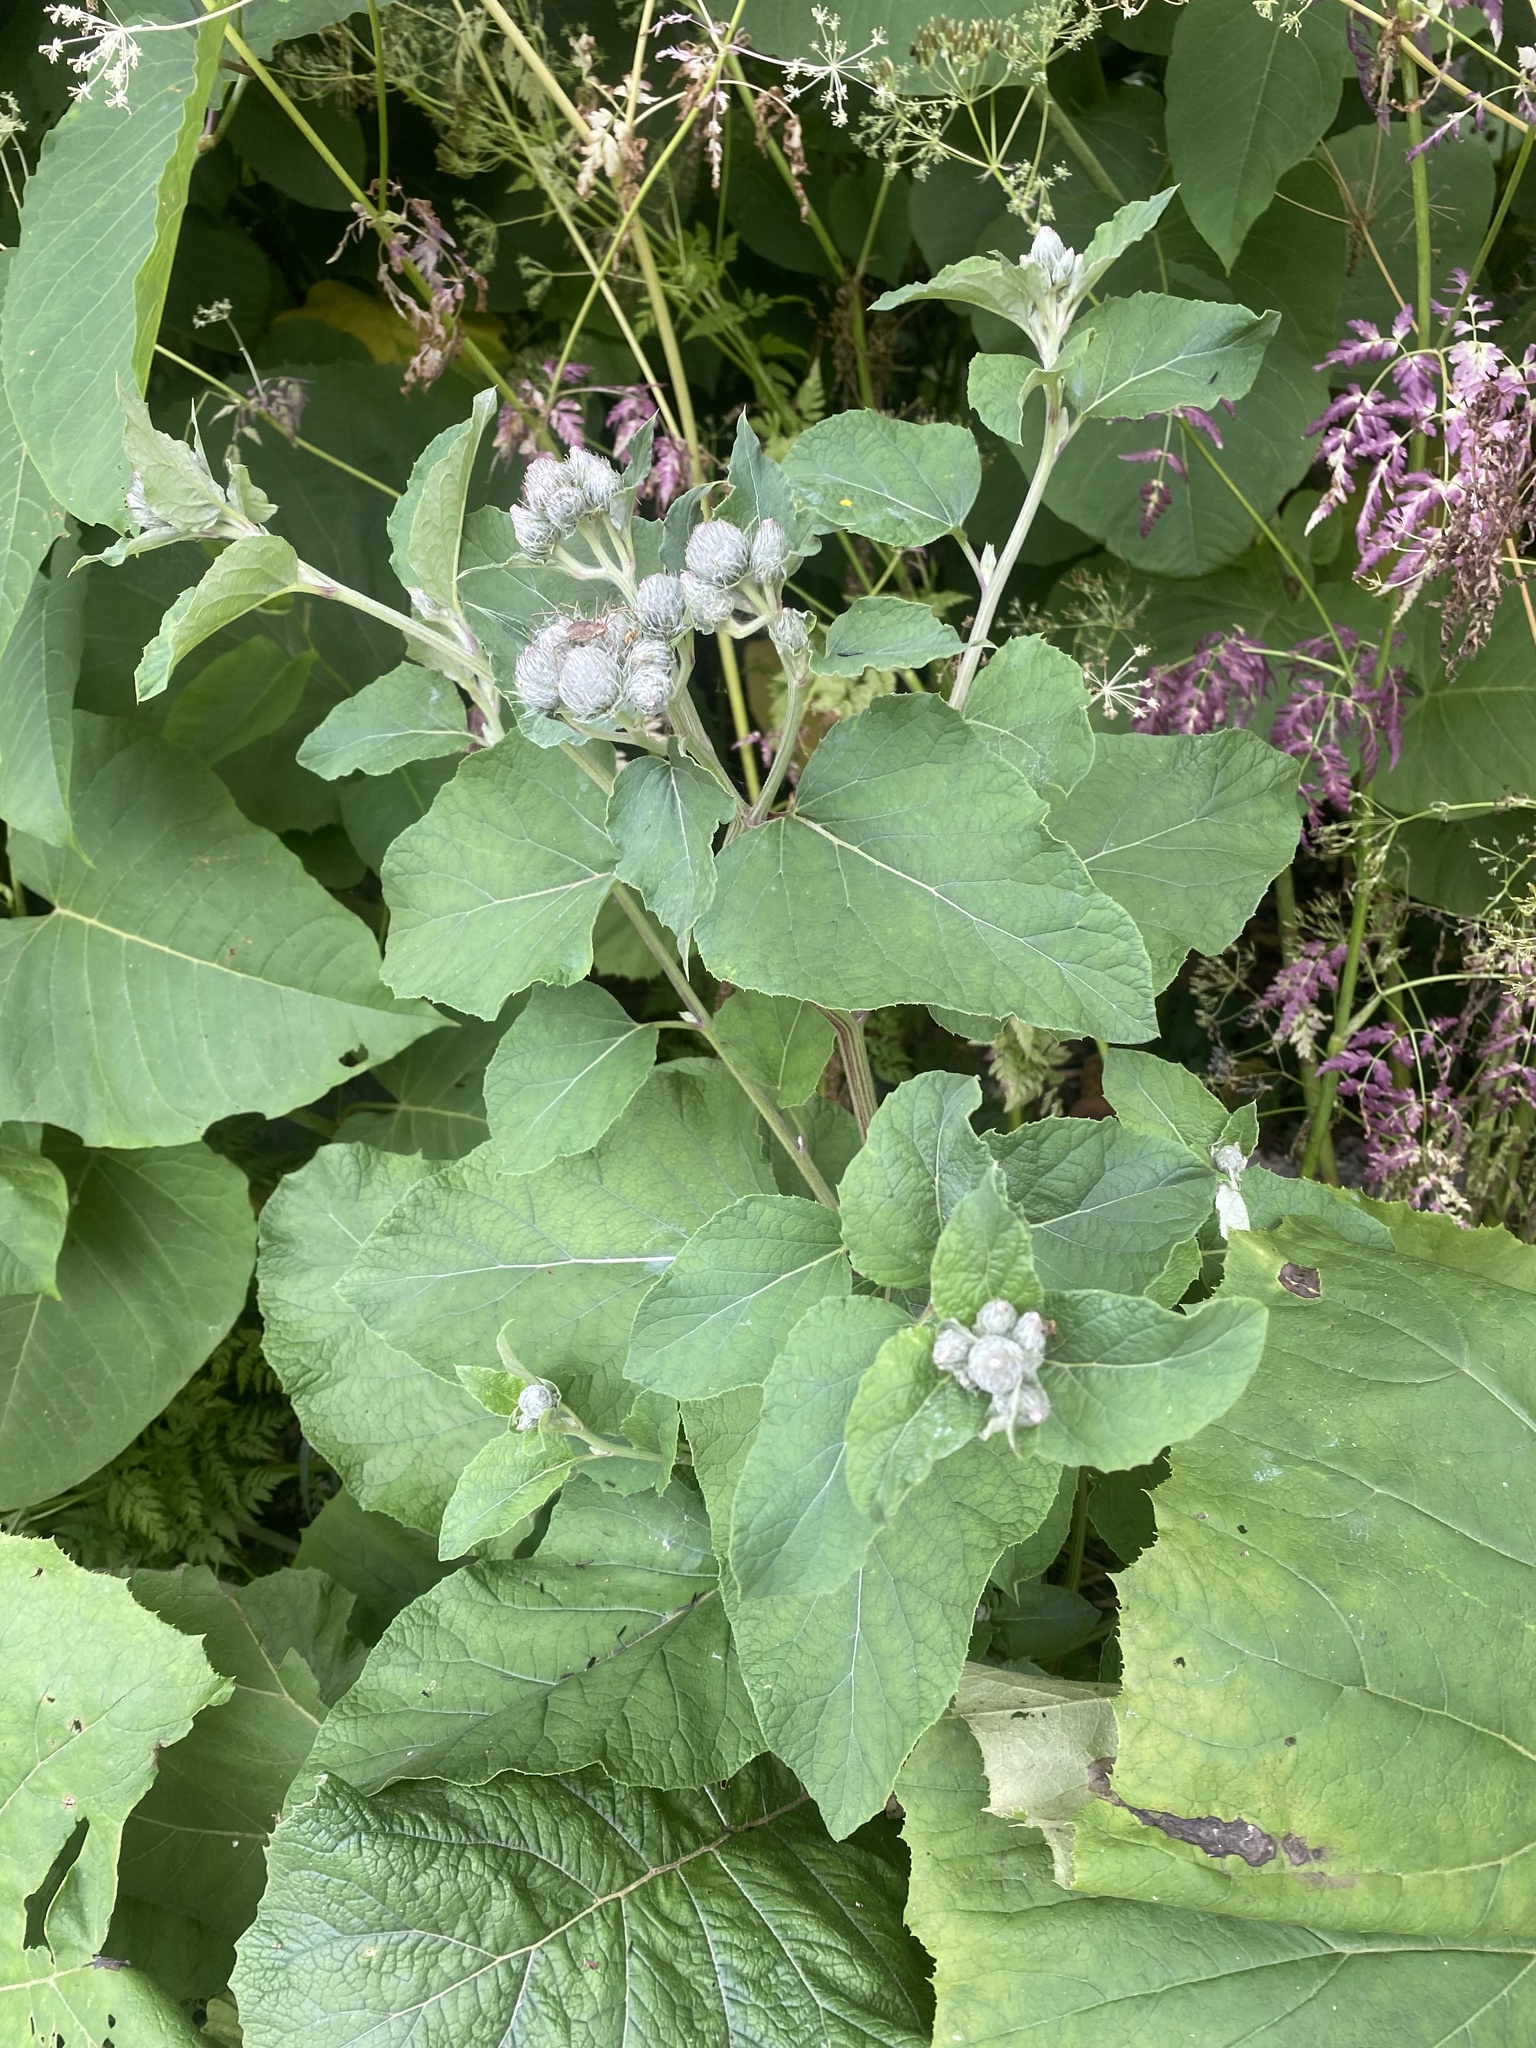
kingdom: Plantae
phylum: Tracheophyta
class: Magnoliopsida
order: Asterales
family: Asteraceae
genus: Arctium
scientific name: Arctium tomentosum
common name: Woolly burdock
